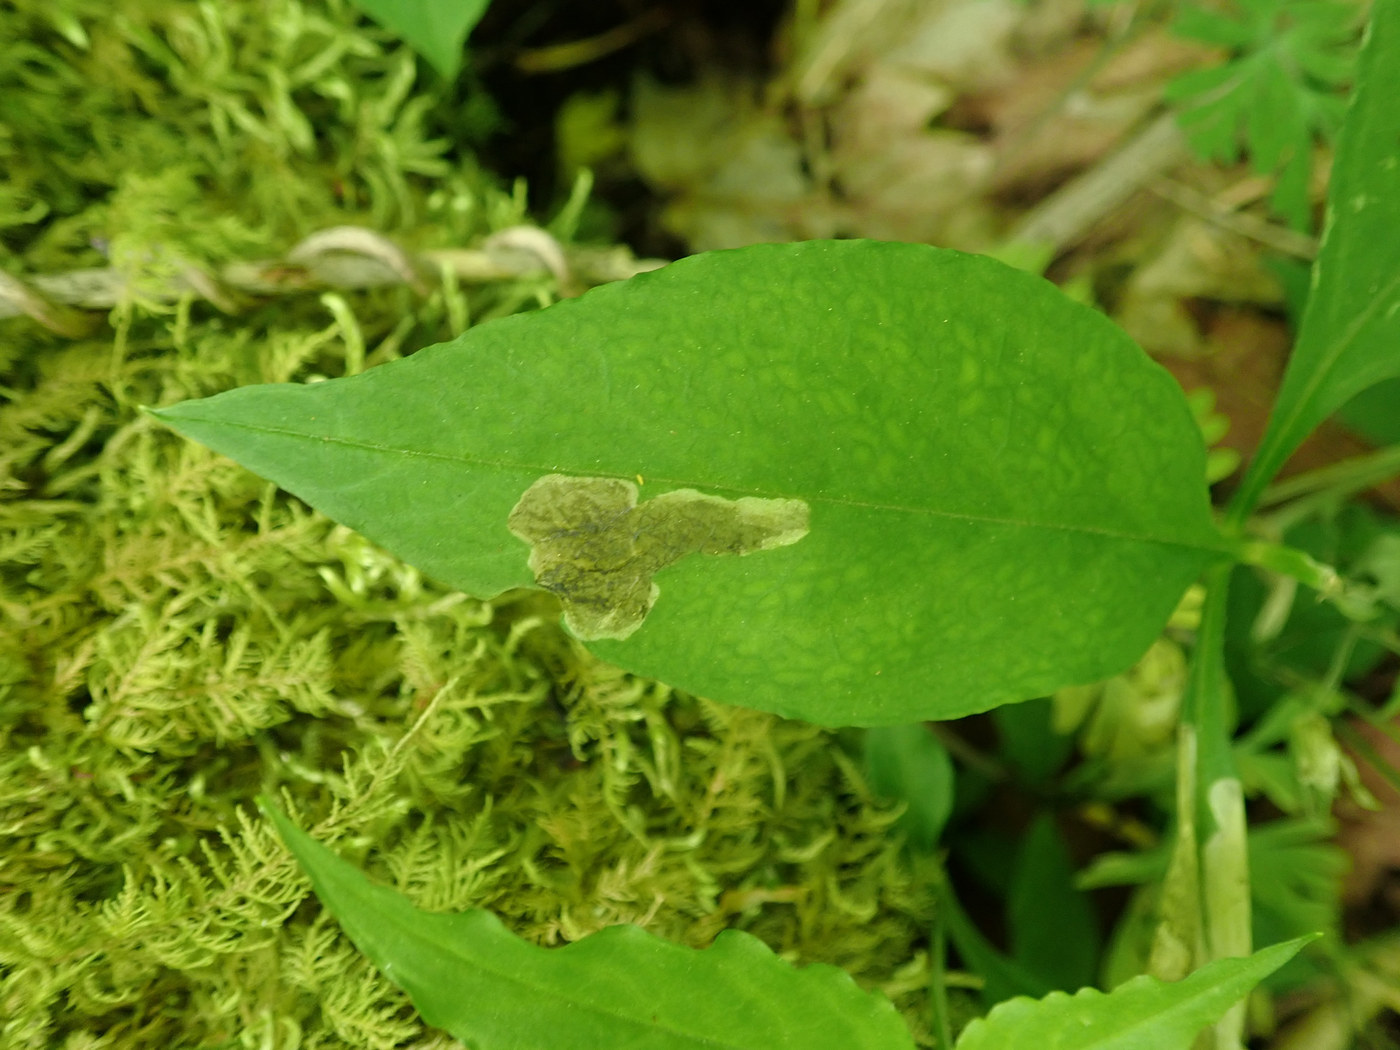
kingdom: Animalia
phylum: Arthropoda
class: Insecta
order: Diptera
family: Anthomyiidae
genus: Pegomya
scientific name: Pegomya flavifrons
